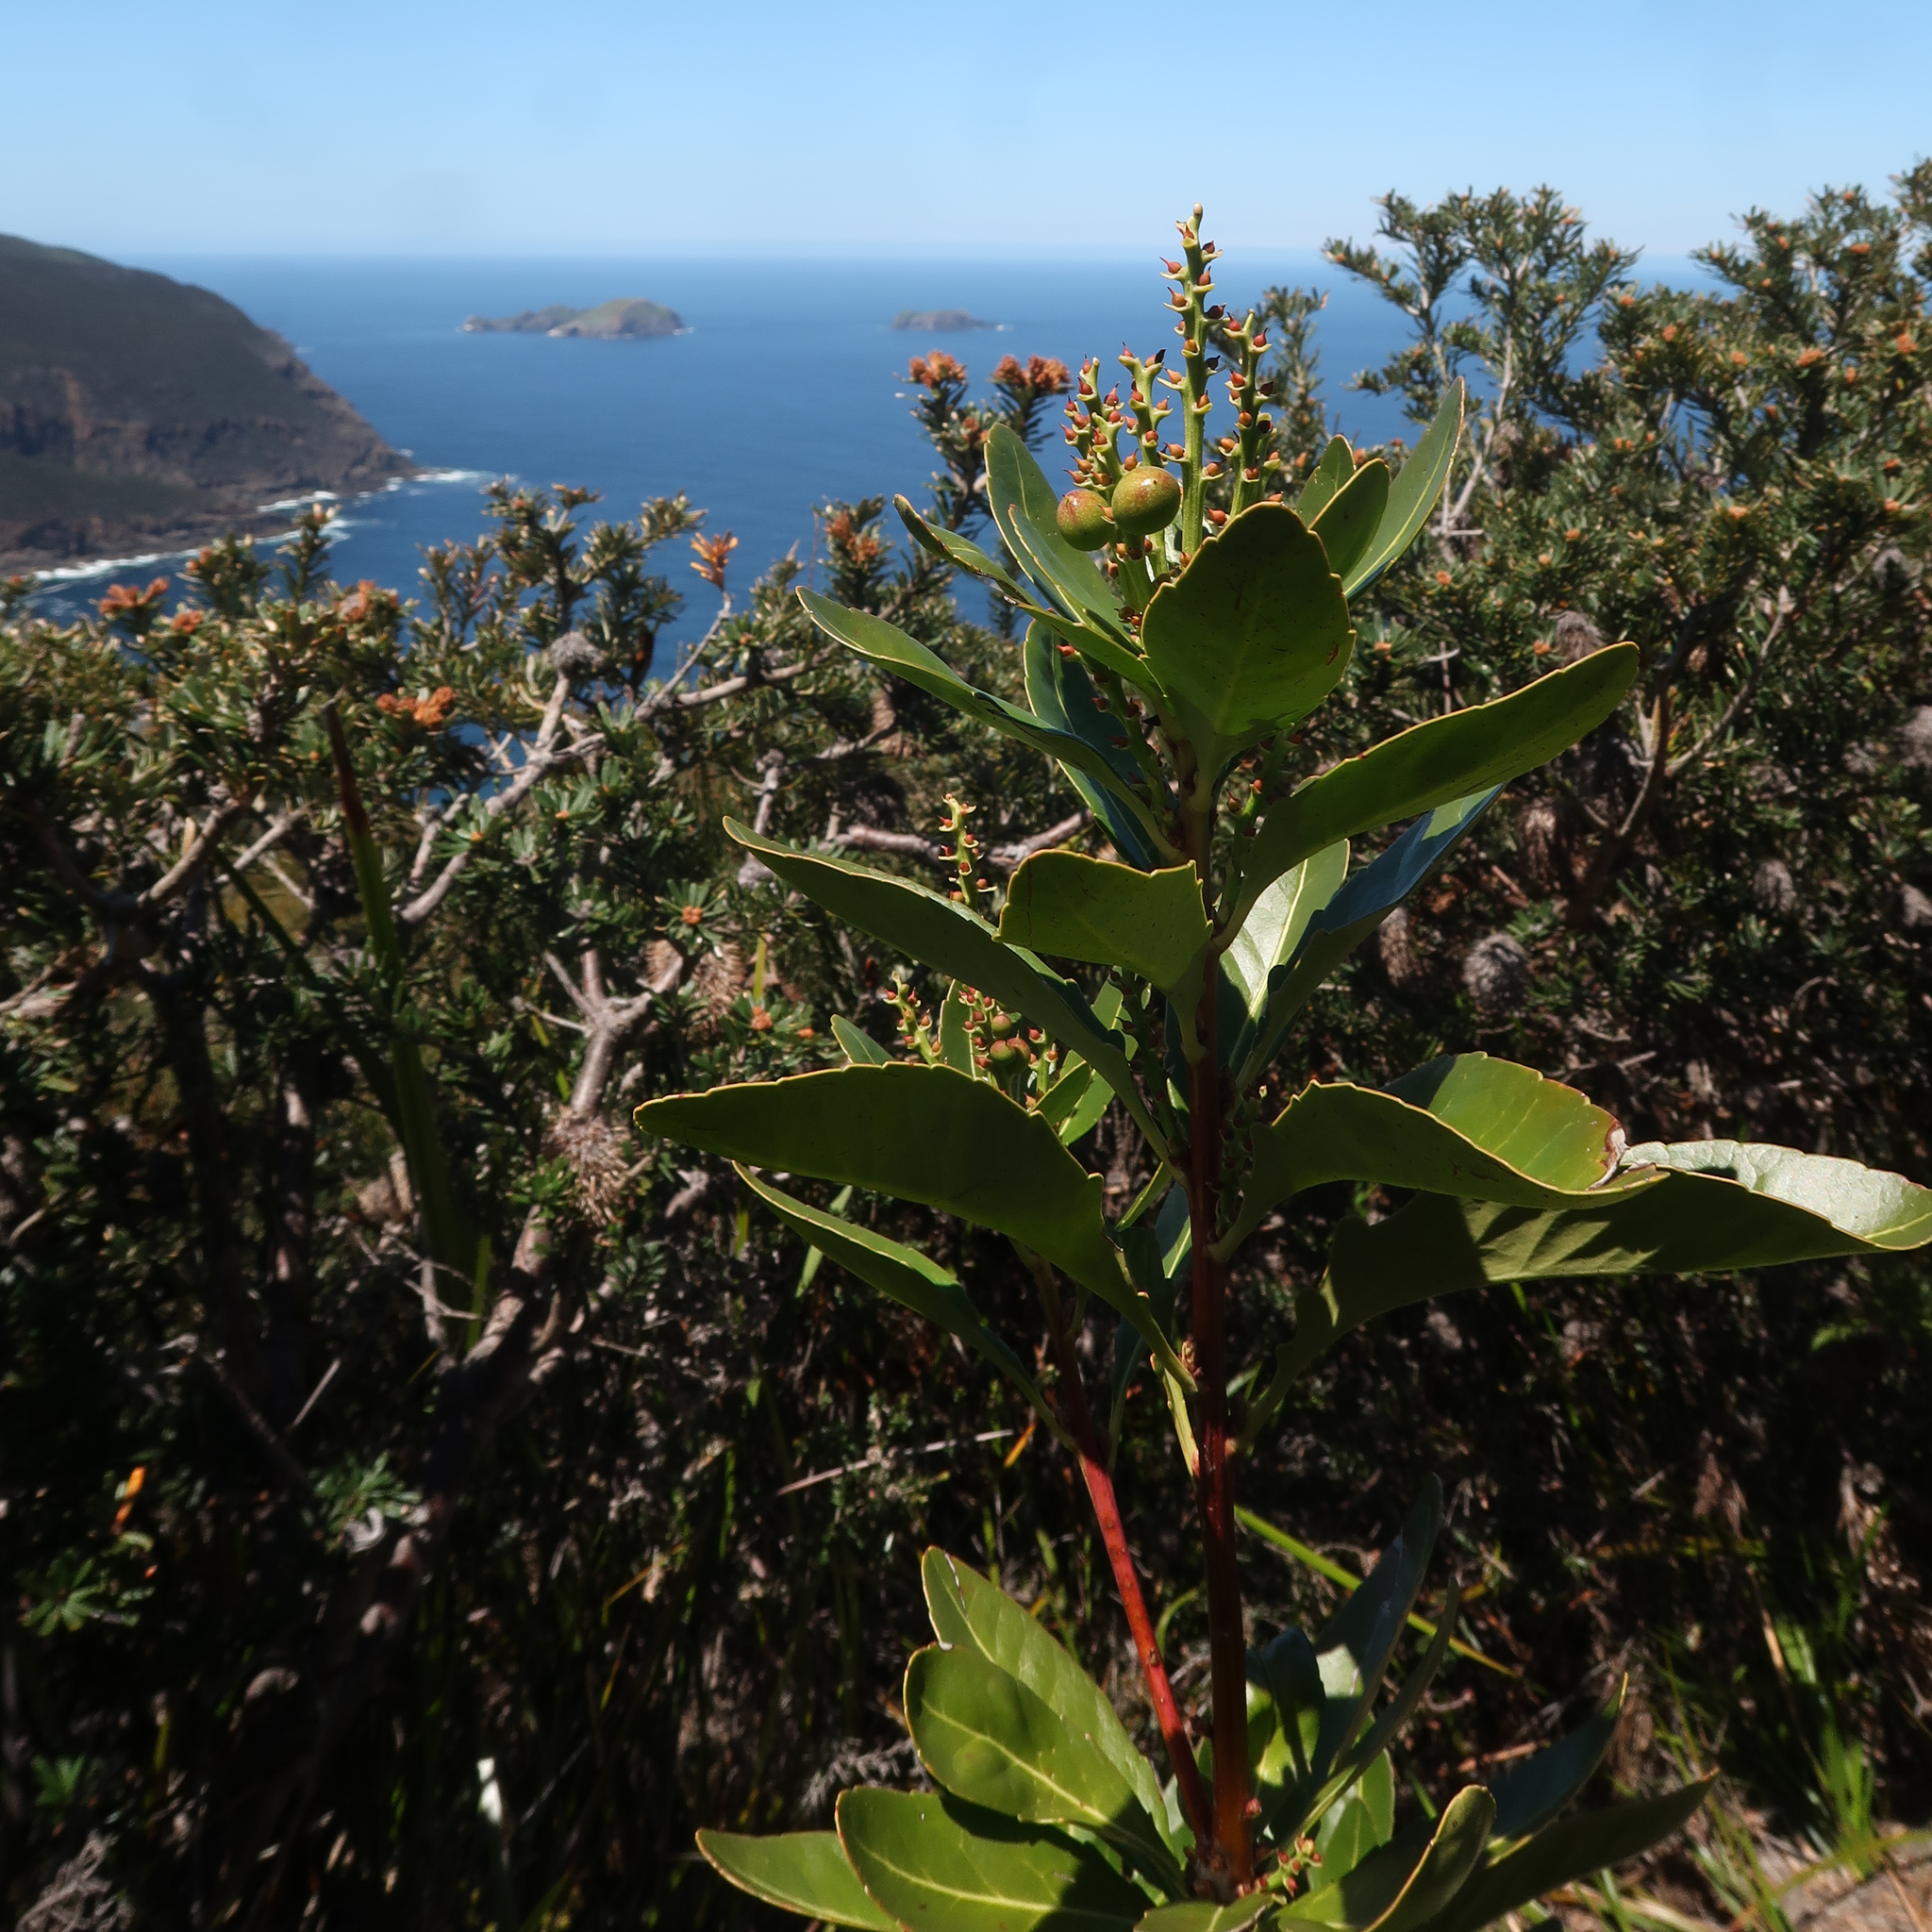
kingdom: Plantae
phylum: Tracheophyta
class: Magnoliopsida
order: Proteales
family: Proteaceae
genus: Cenarrhenes
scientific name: Cenarrhenes nitida
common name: Native plum
